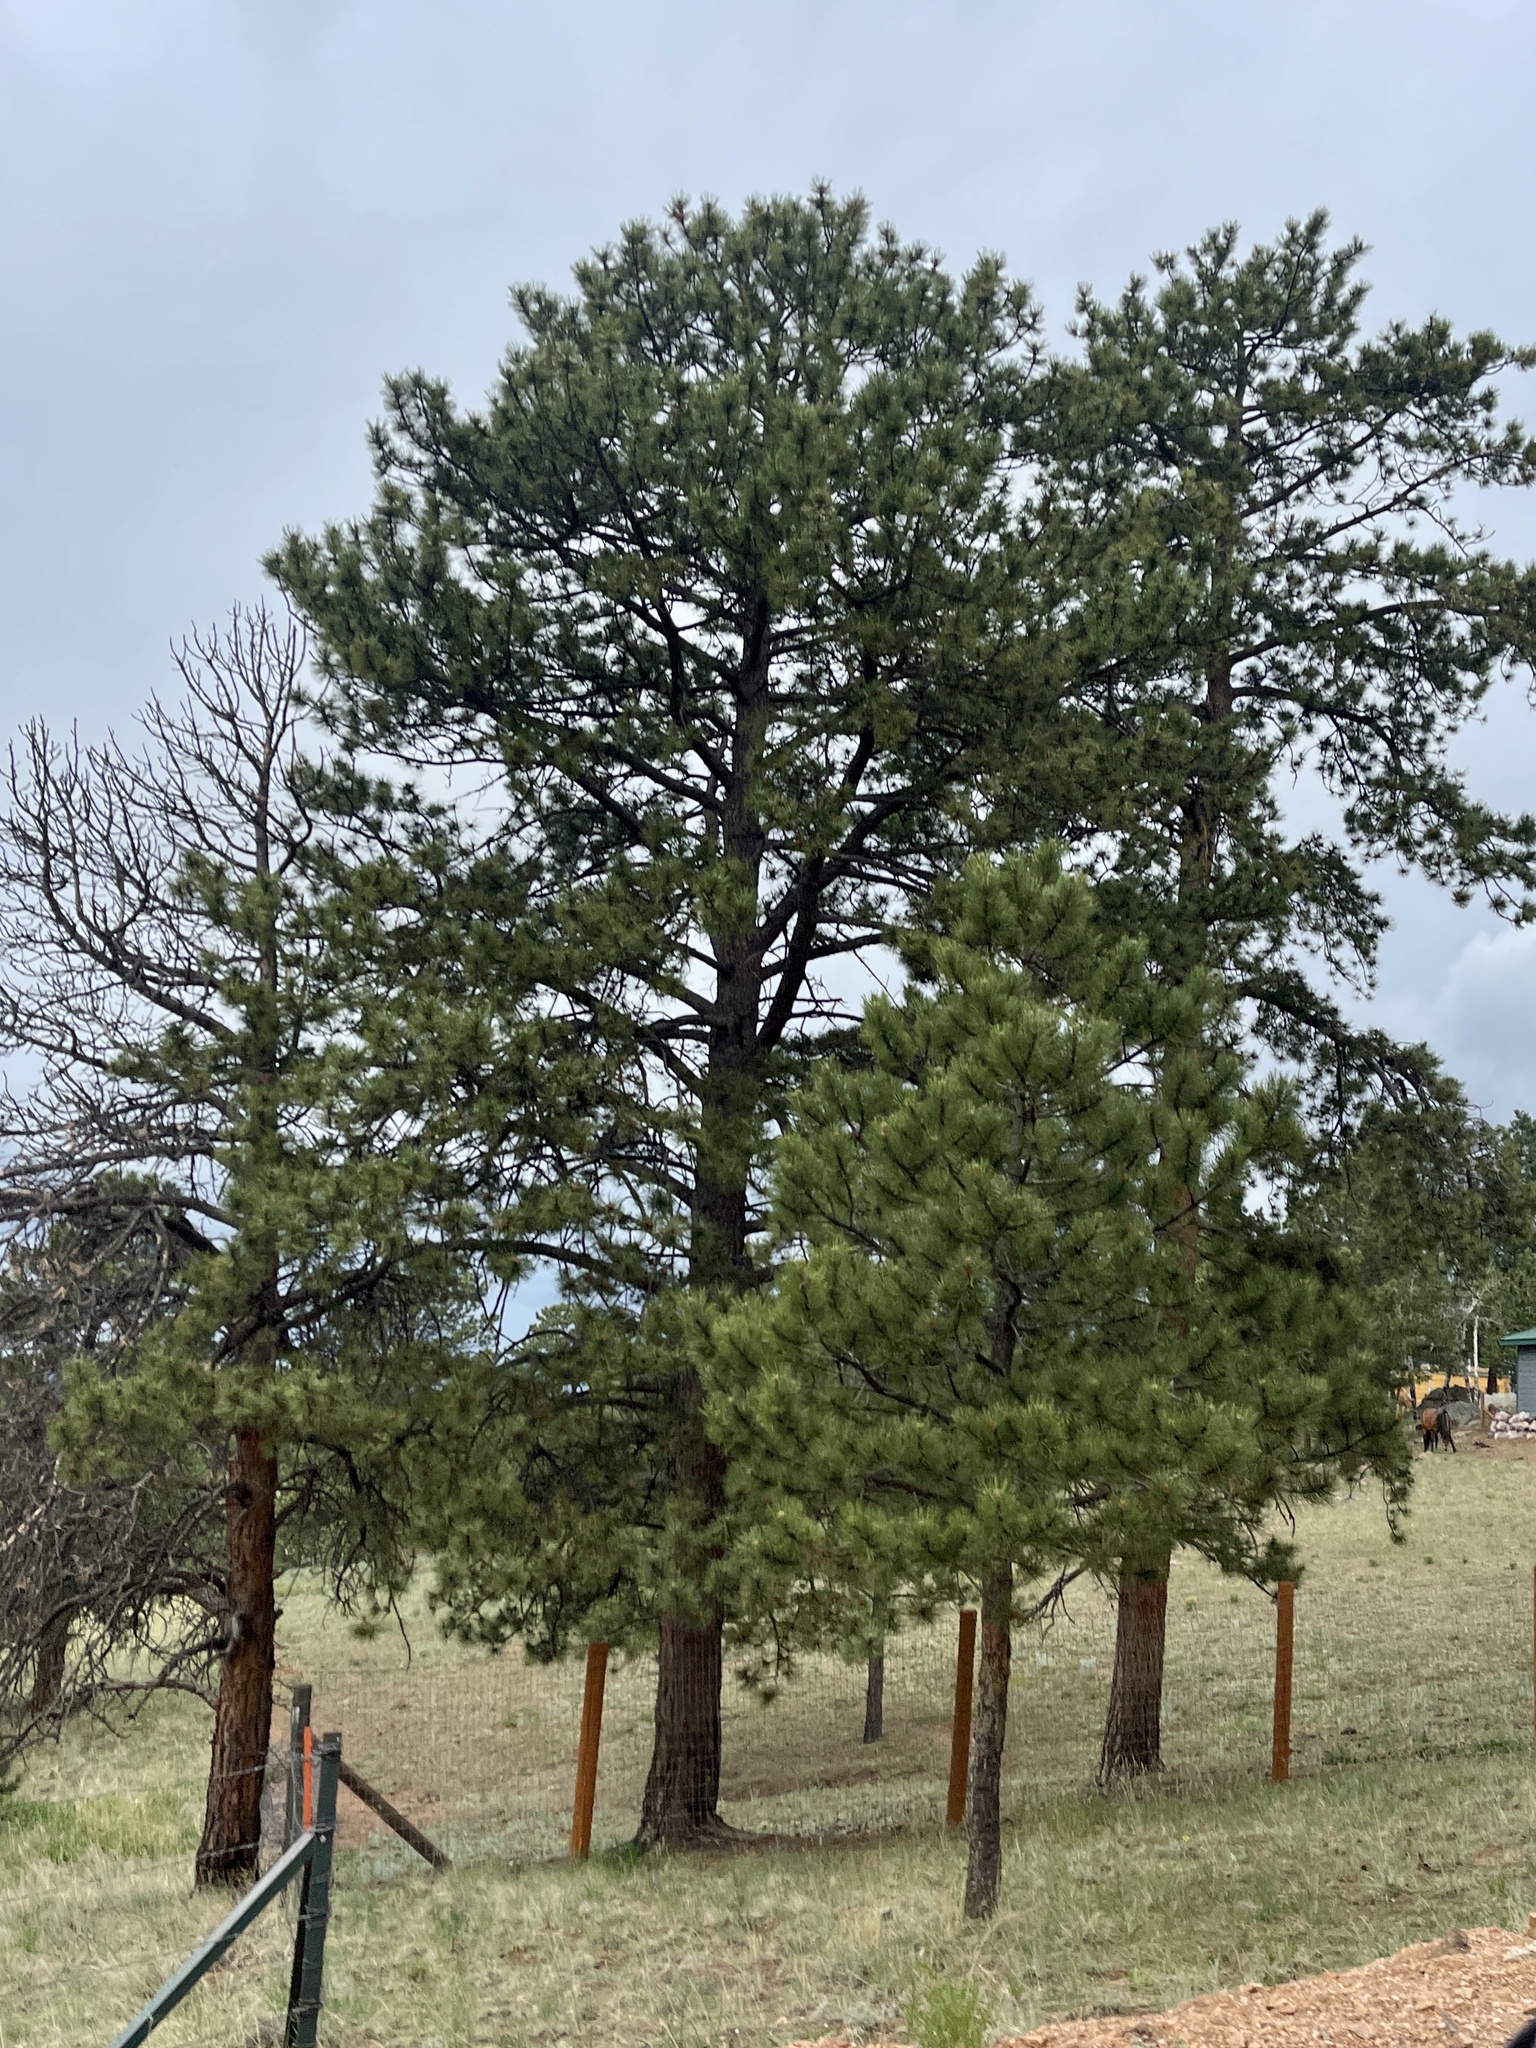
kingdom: Plantae
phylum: Tracheophyta
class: Pinopsida
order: Pinales
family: Pinaceae
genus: Pinus
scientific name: Pinus ponderosa
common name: Western yellow-pine
